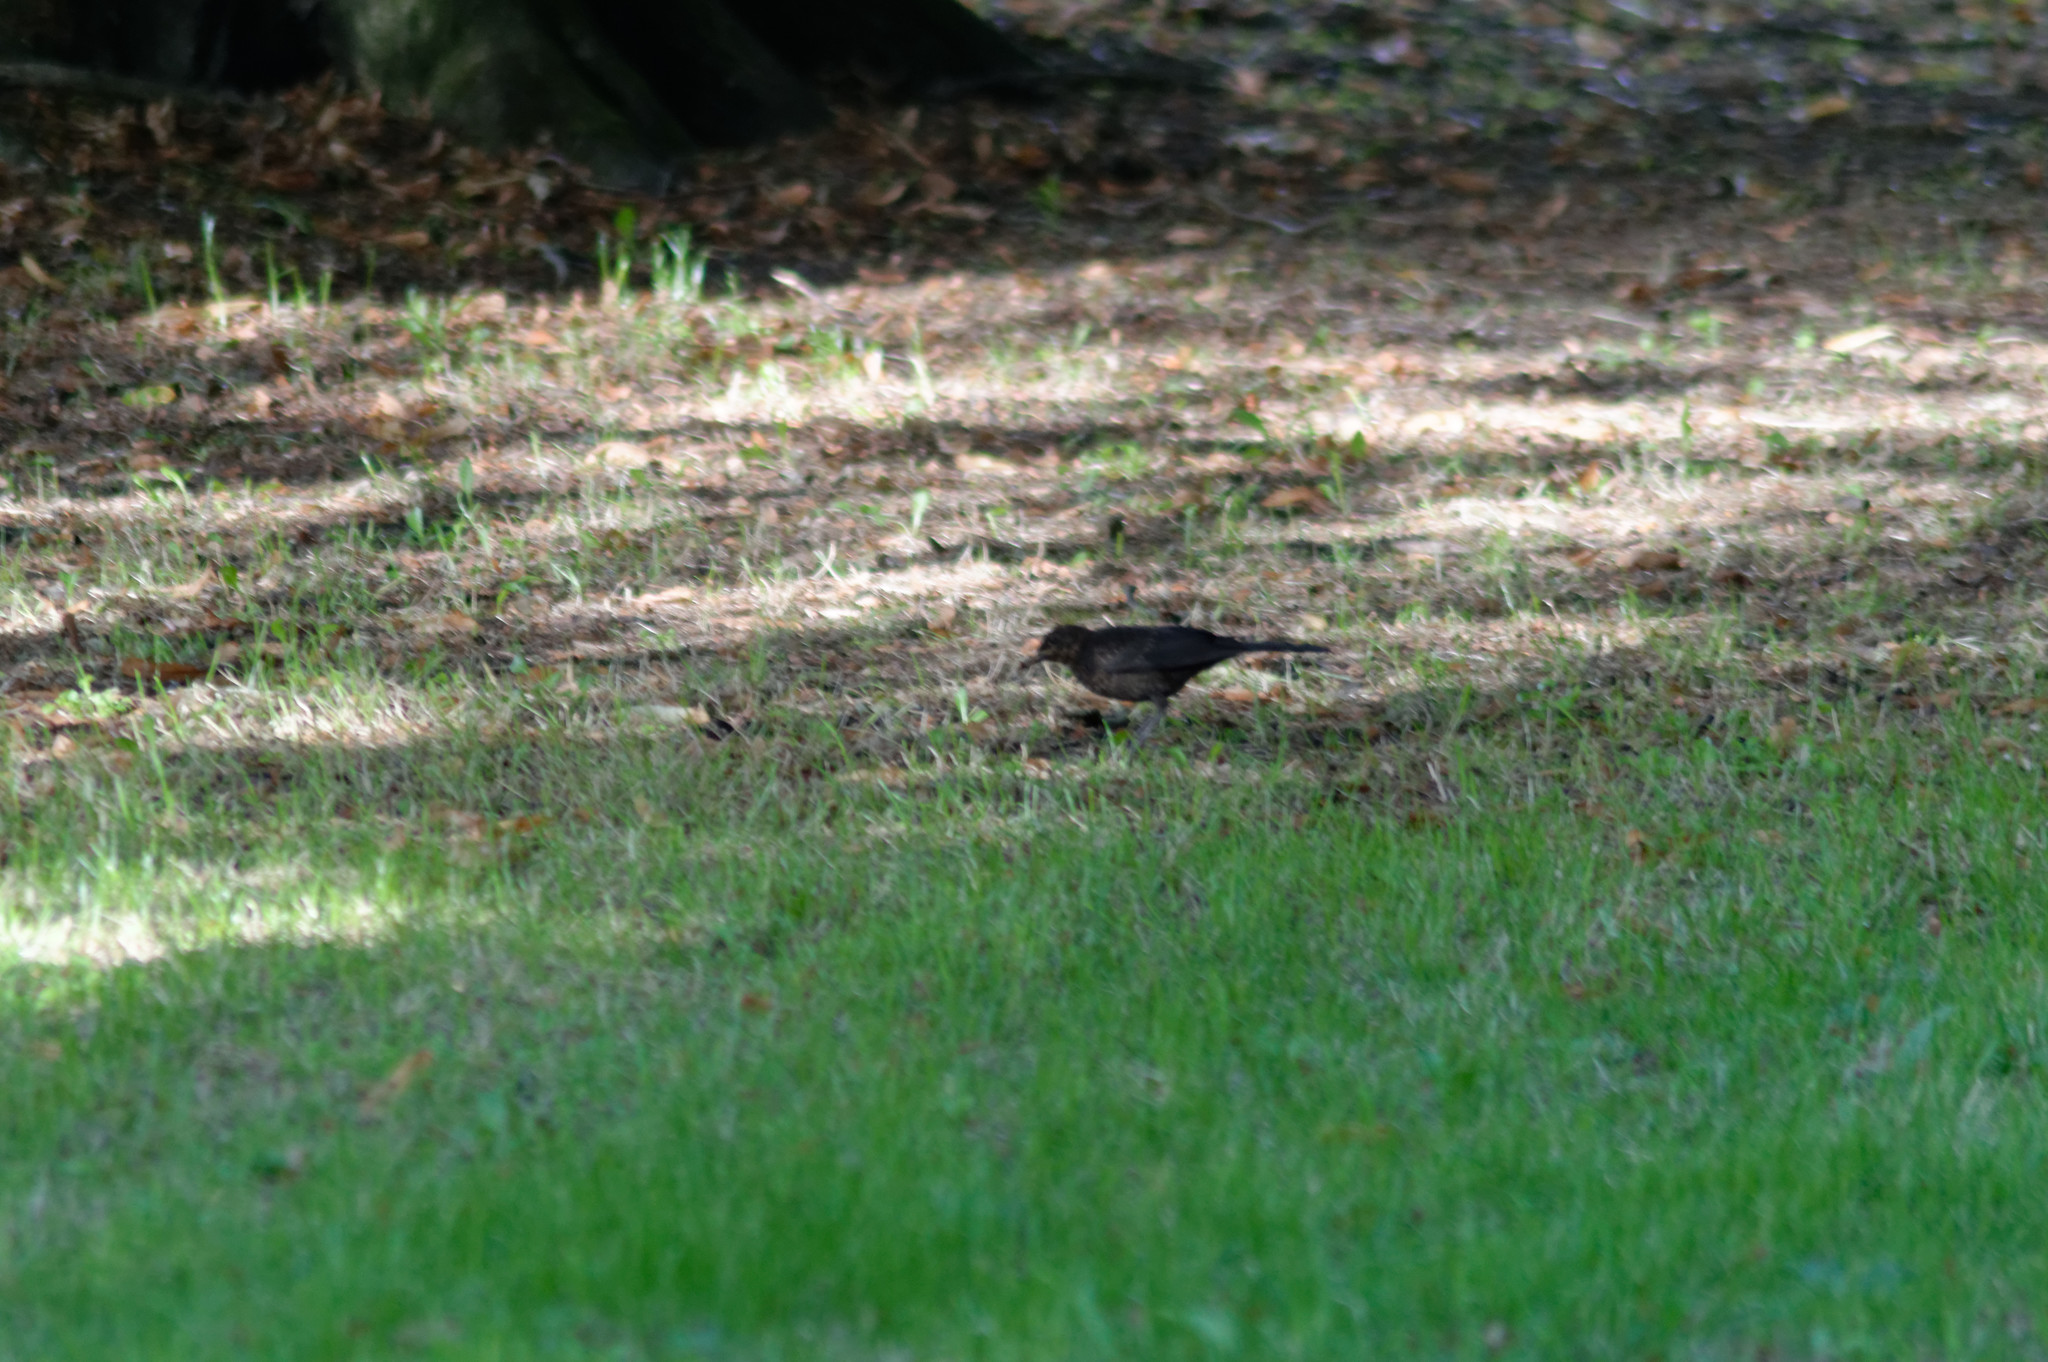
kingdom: Animalia
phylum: Chordata
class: Aves
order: Passeriformes
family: Turdidae
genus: Turdus
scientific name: Turdus merula
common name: Common blackbird
